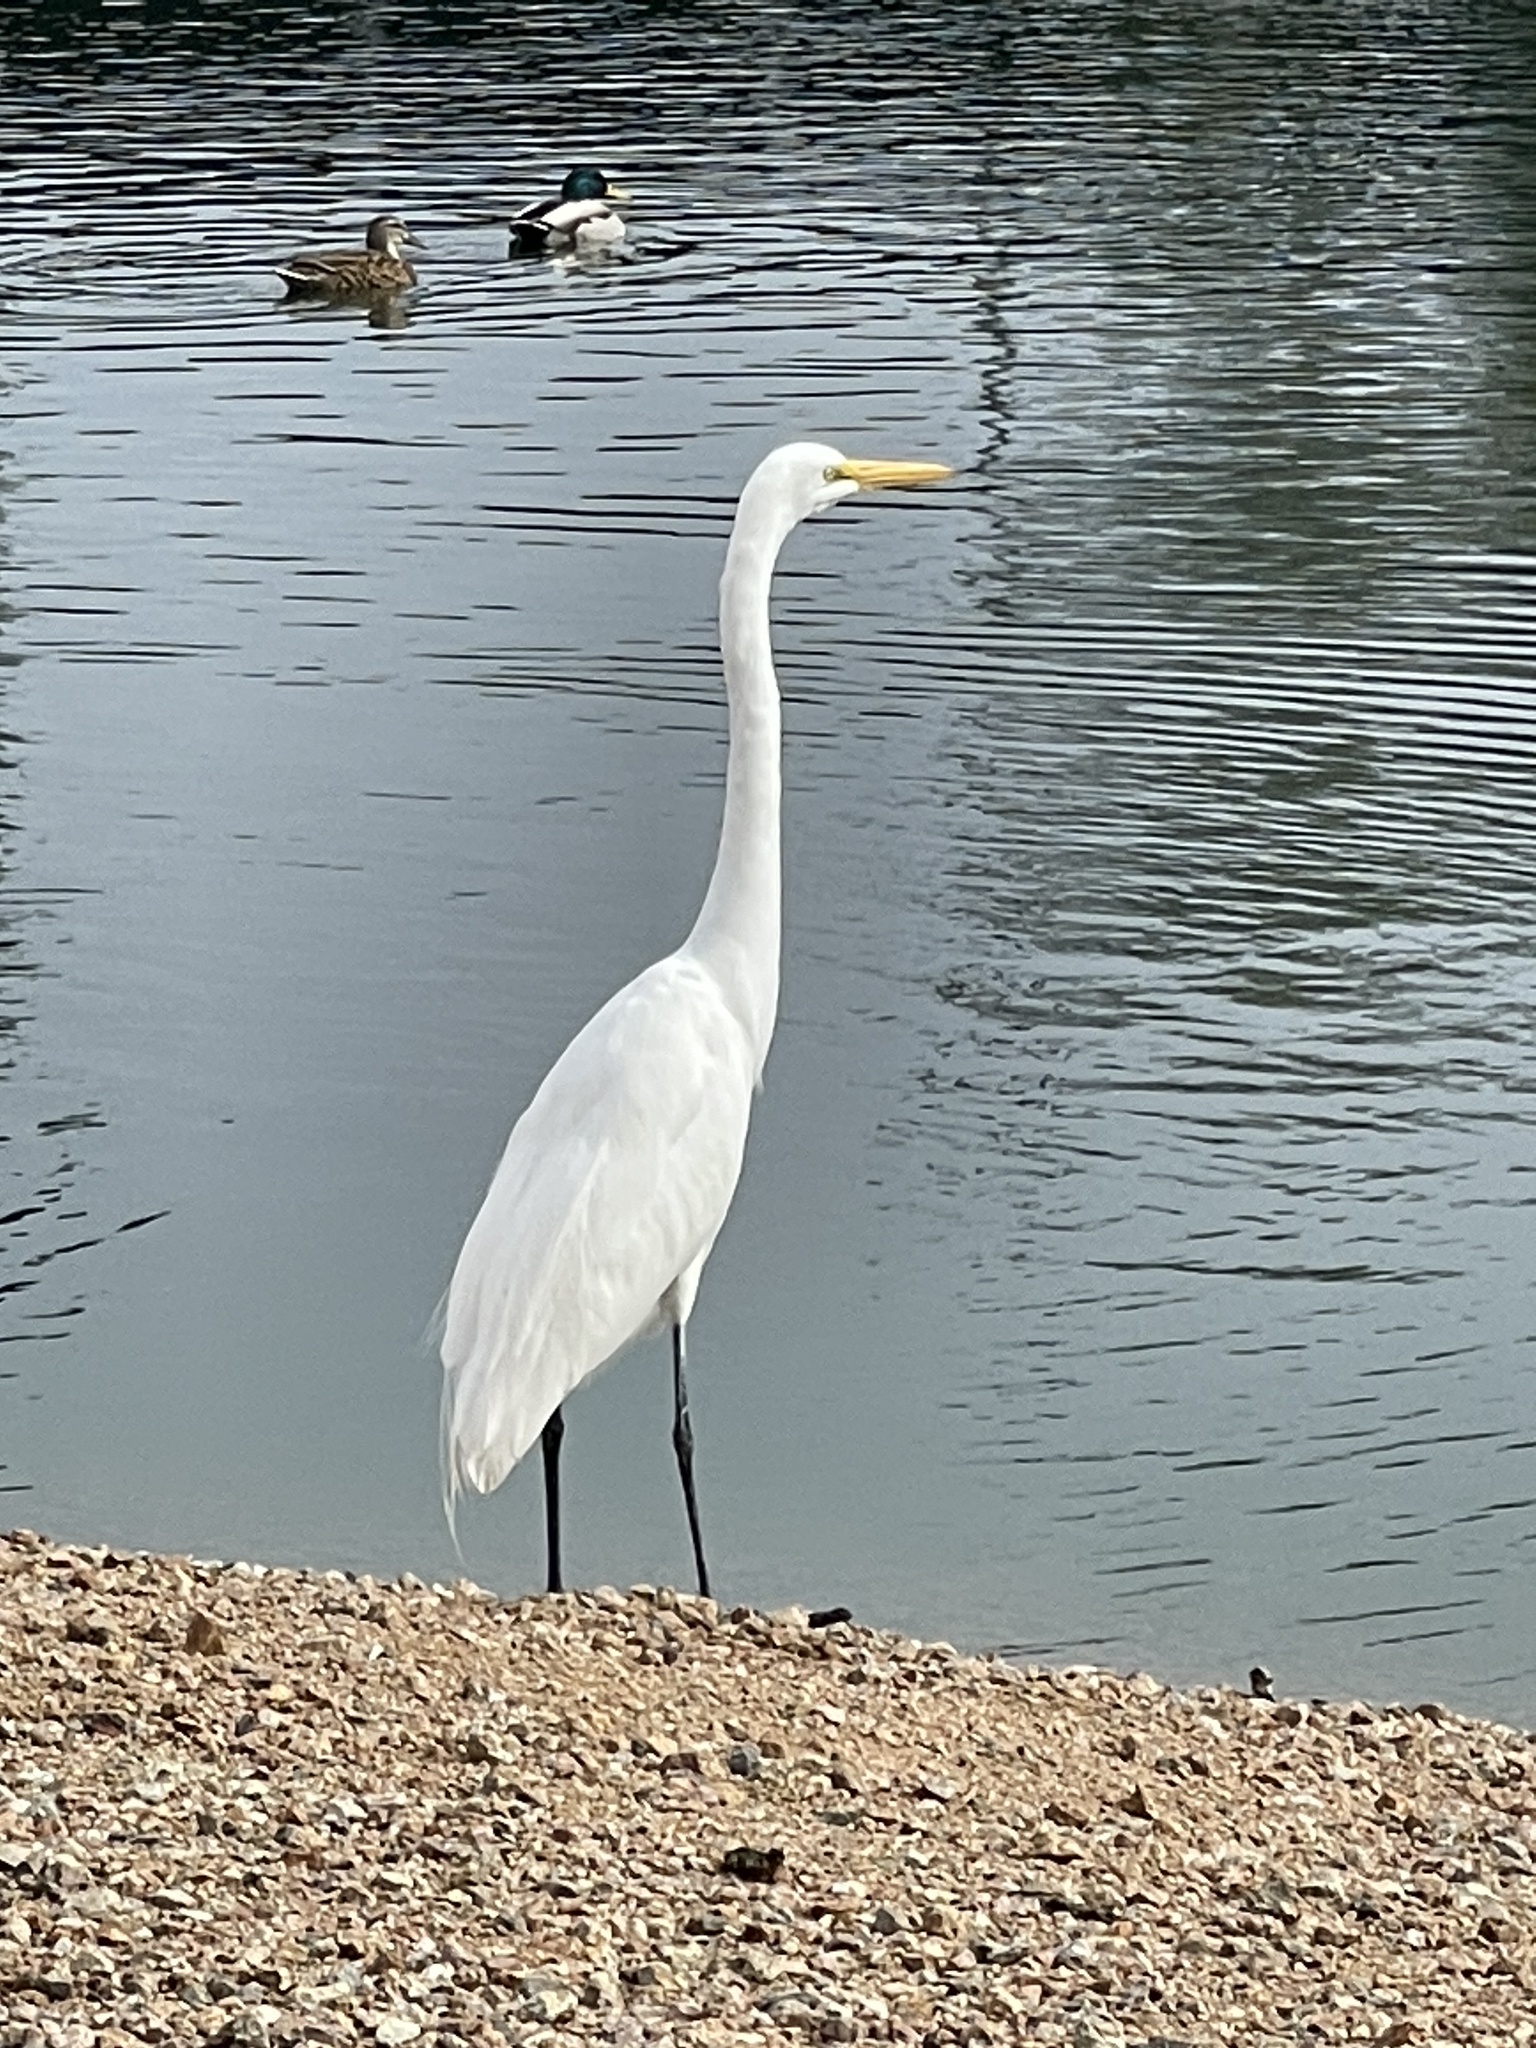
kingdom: Animalia
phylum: Chordata
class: Aves
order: Pelecaniformes
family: Ardeidae
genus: Ardea
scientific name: Ardea alba
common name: Great egret
